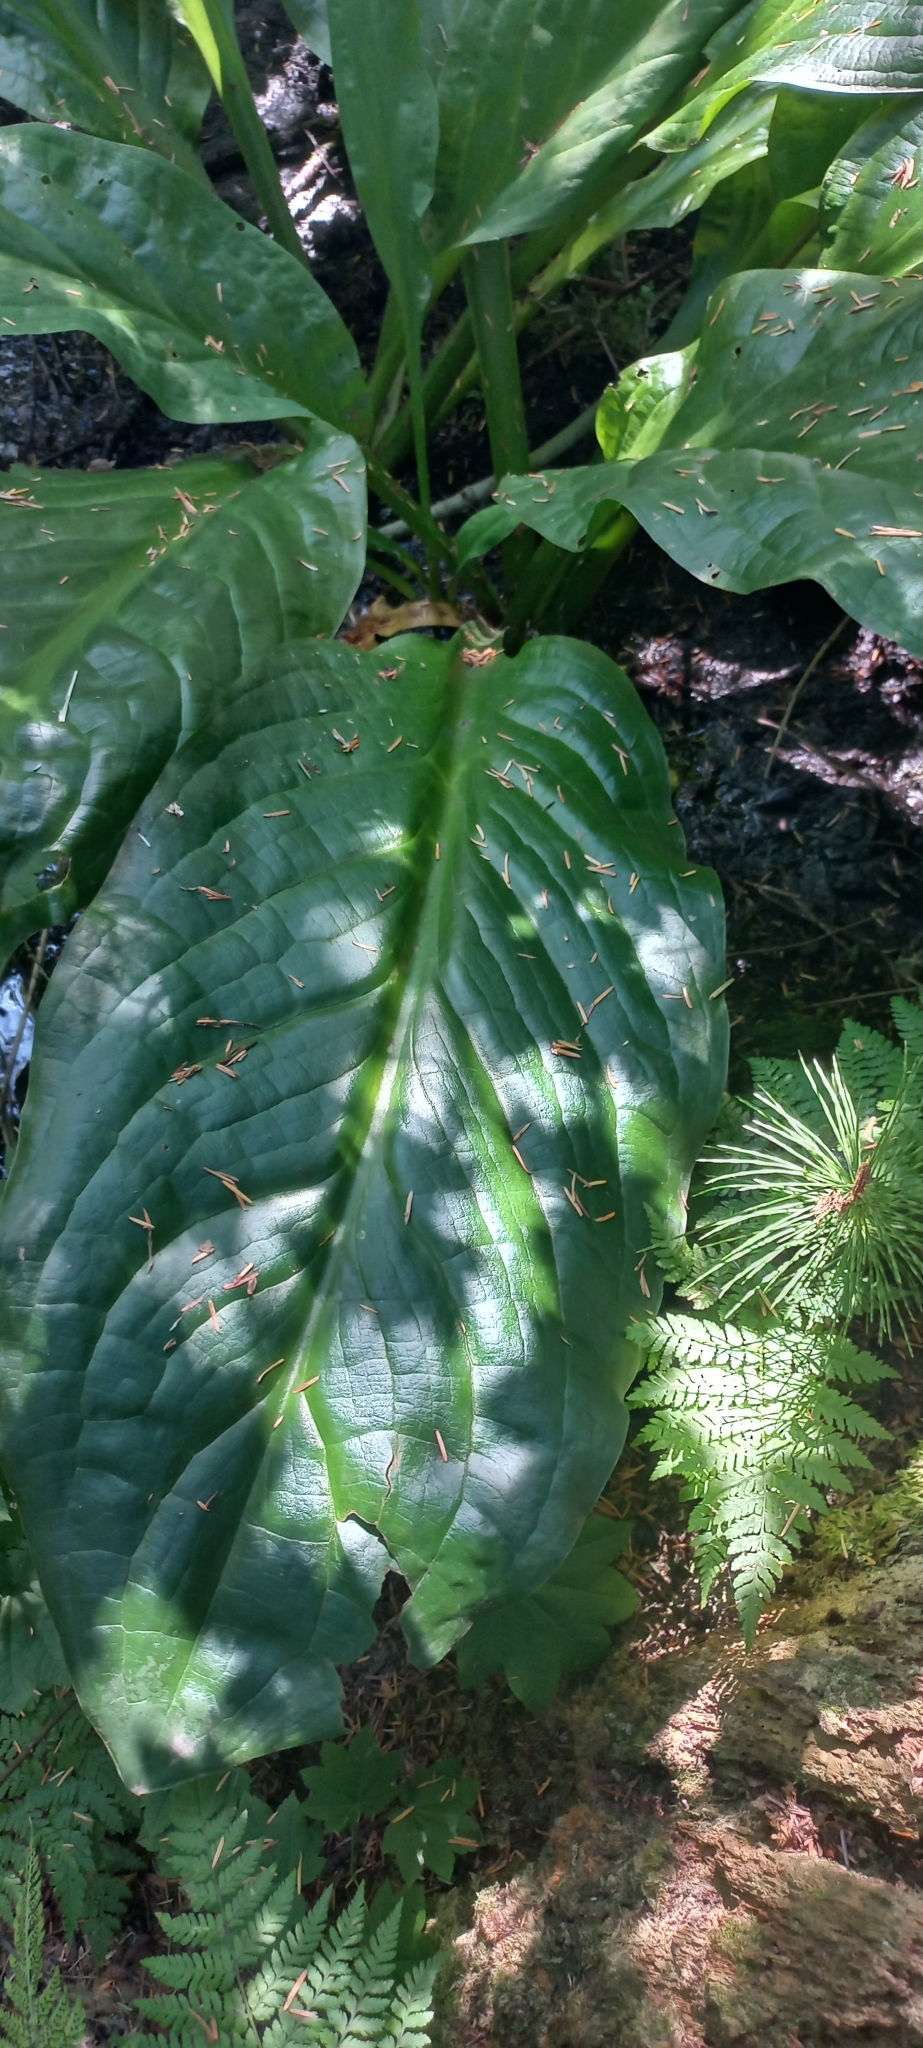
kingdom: Plantae
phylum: Tracheophyta
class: Liliopsida
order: Alismatales
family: Araceae
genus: Lysichiton
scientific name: Lysichiton americanus
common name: American skunk cabbage
